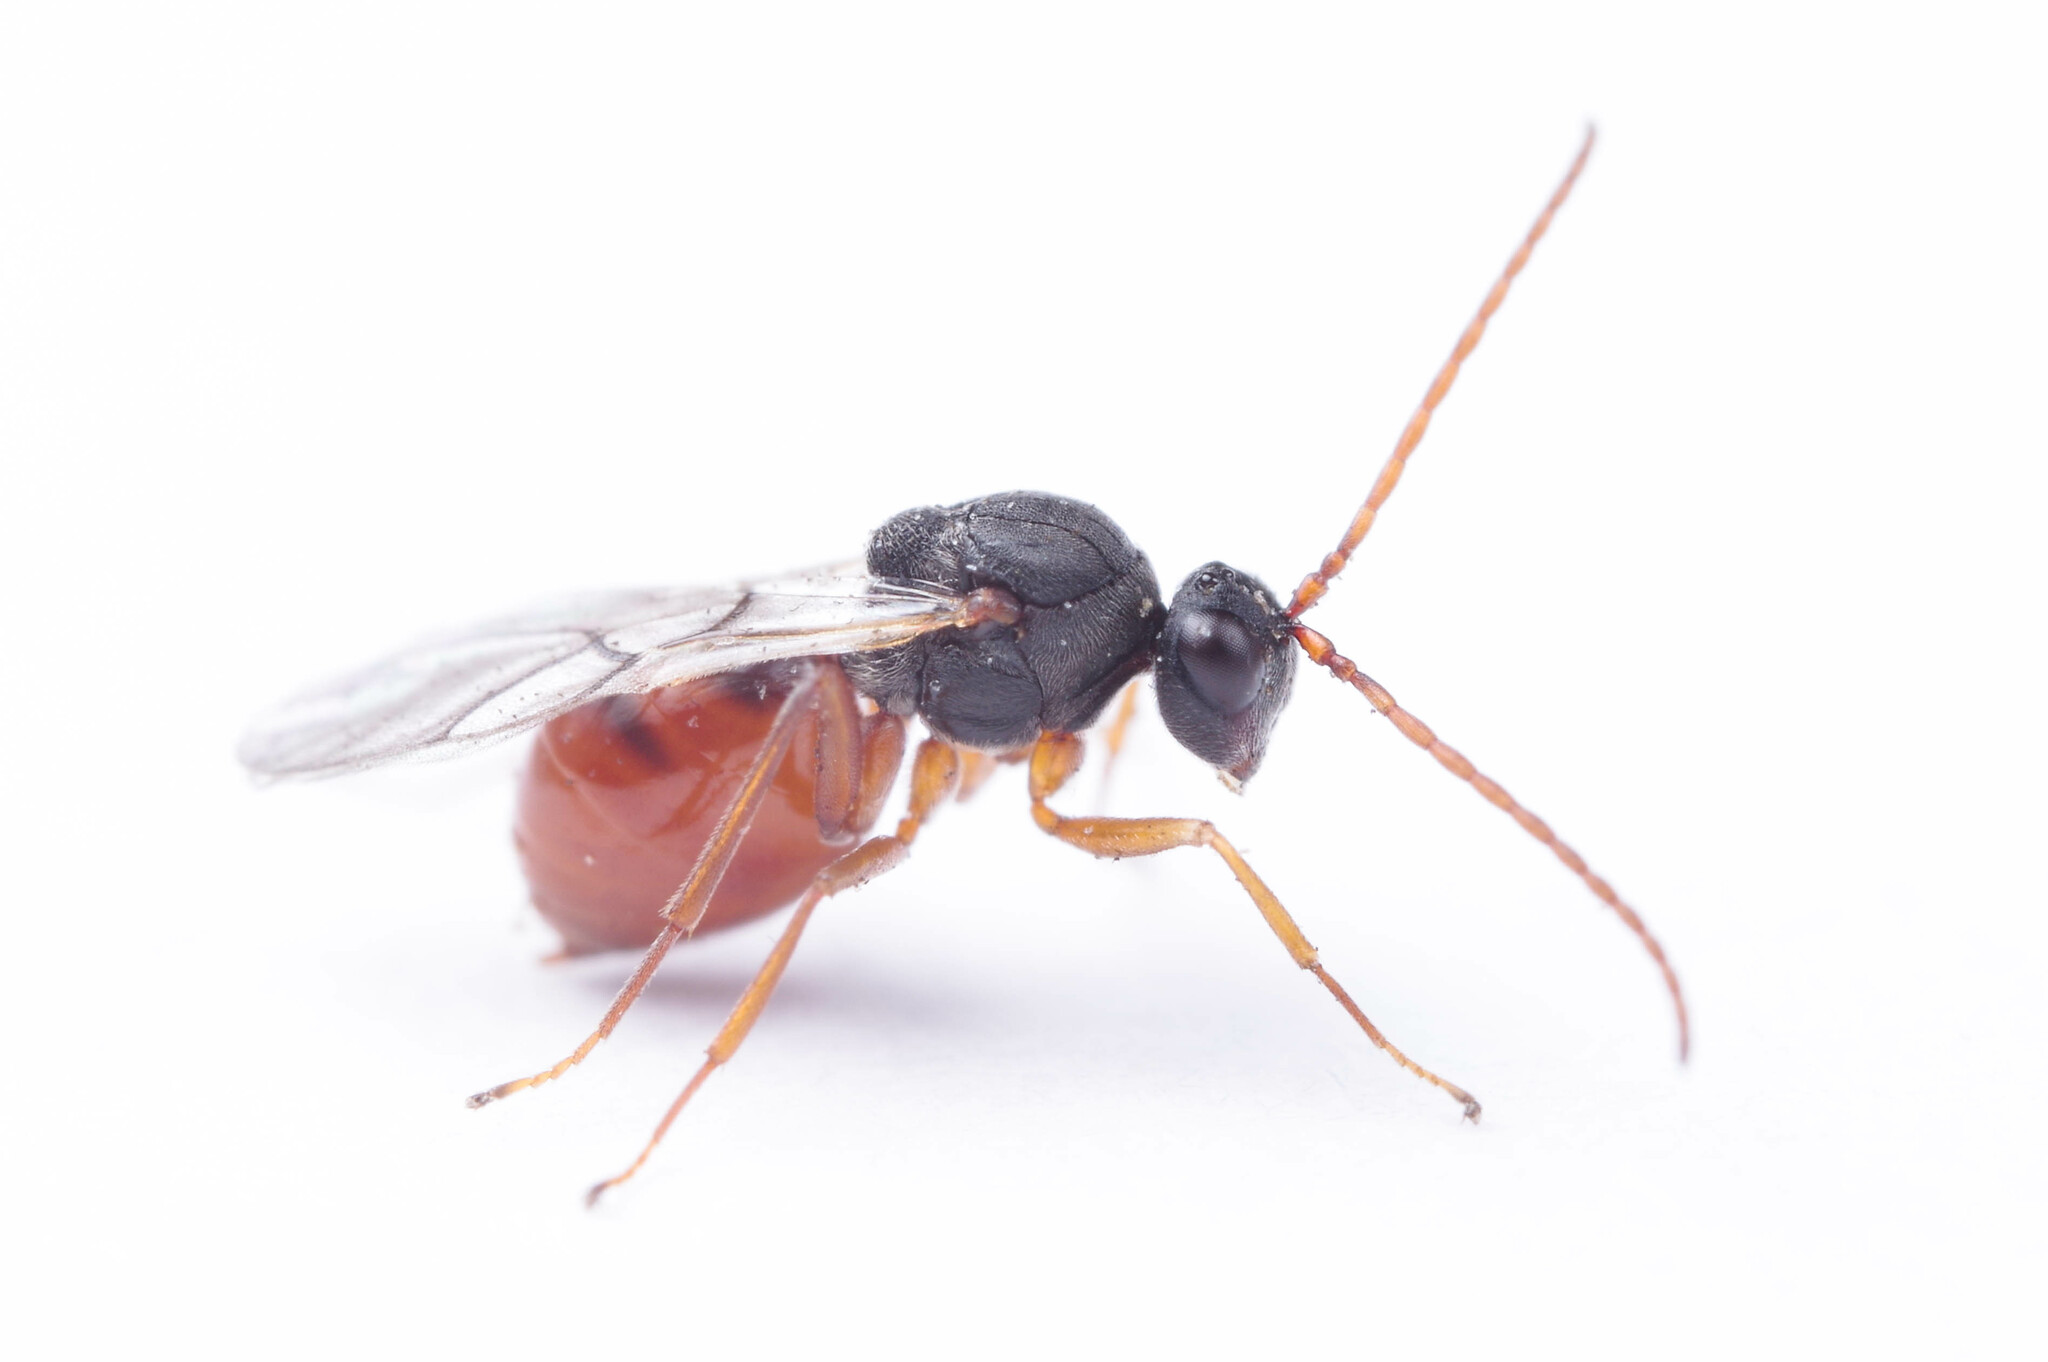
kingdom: Animalia
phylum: Arthropoda
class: Insecta
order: Hymenoptera
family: Cynipidae
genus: Aulacidea
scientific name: Aulacidea
